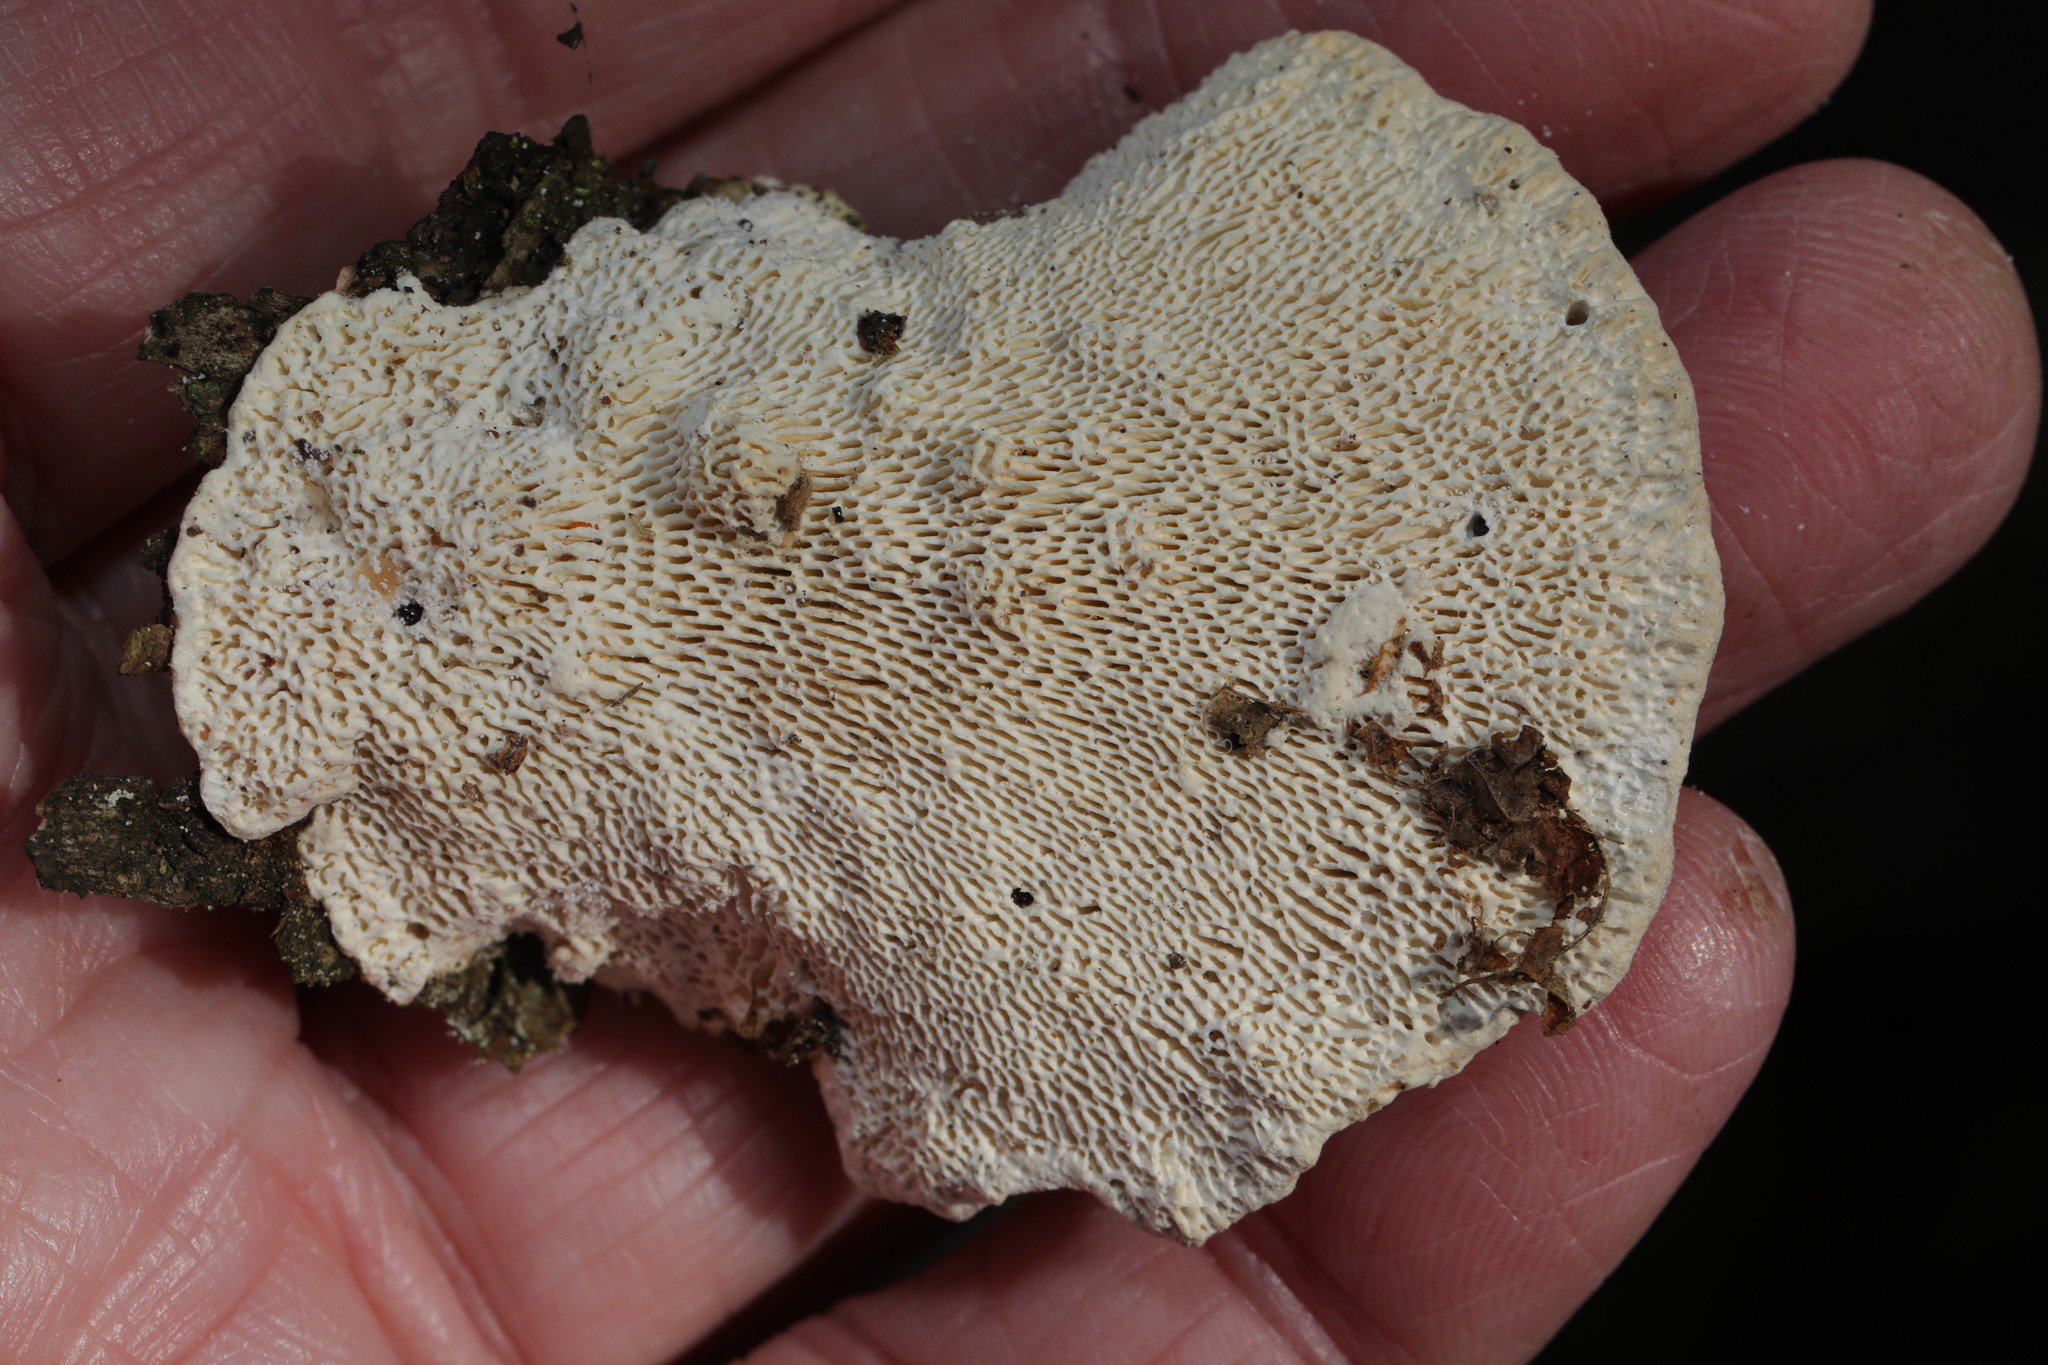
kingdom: Fungi
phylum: Basidiomycota
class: Agaricomycetes
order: Polyporales
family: Fomitopsidaceae
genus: Fomitopsis
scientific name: Fomitopsis betulina
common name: Birch polypore
